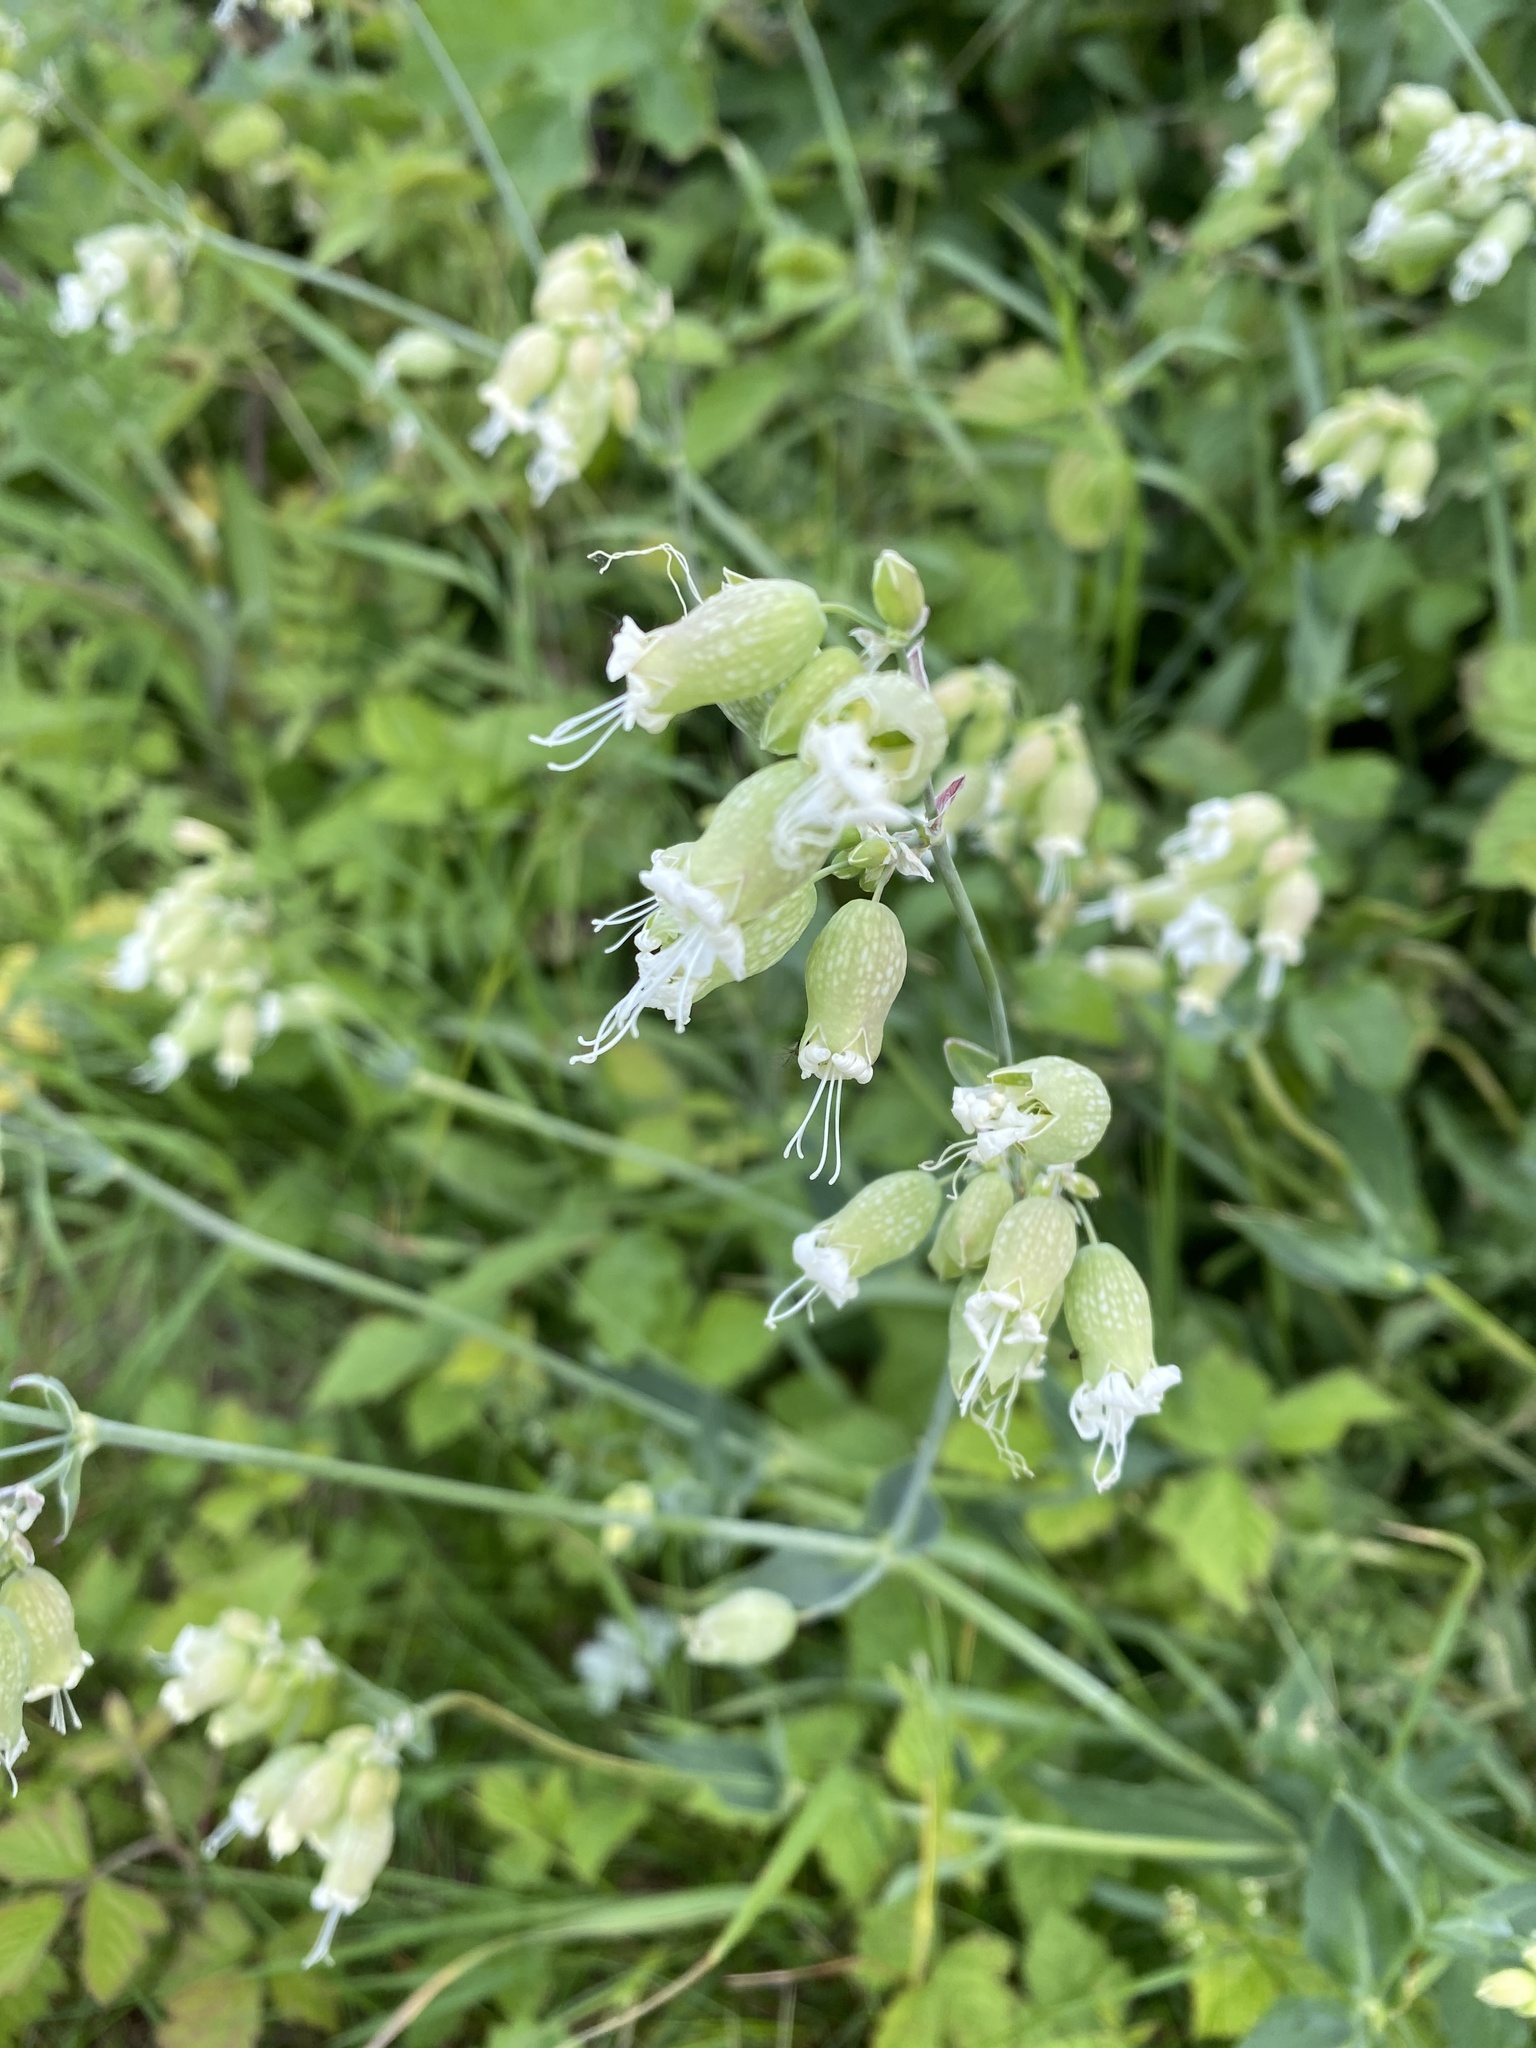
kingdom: Plantae
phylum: Tracheophyta
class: Magnoliopsida
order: Caryophyllales
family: Caryophyllaceae
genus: Silene
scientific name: Silene vulgaris
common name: Bladder campion
